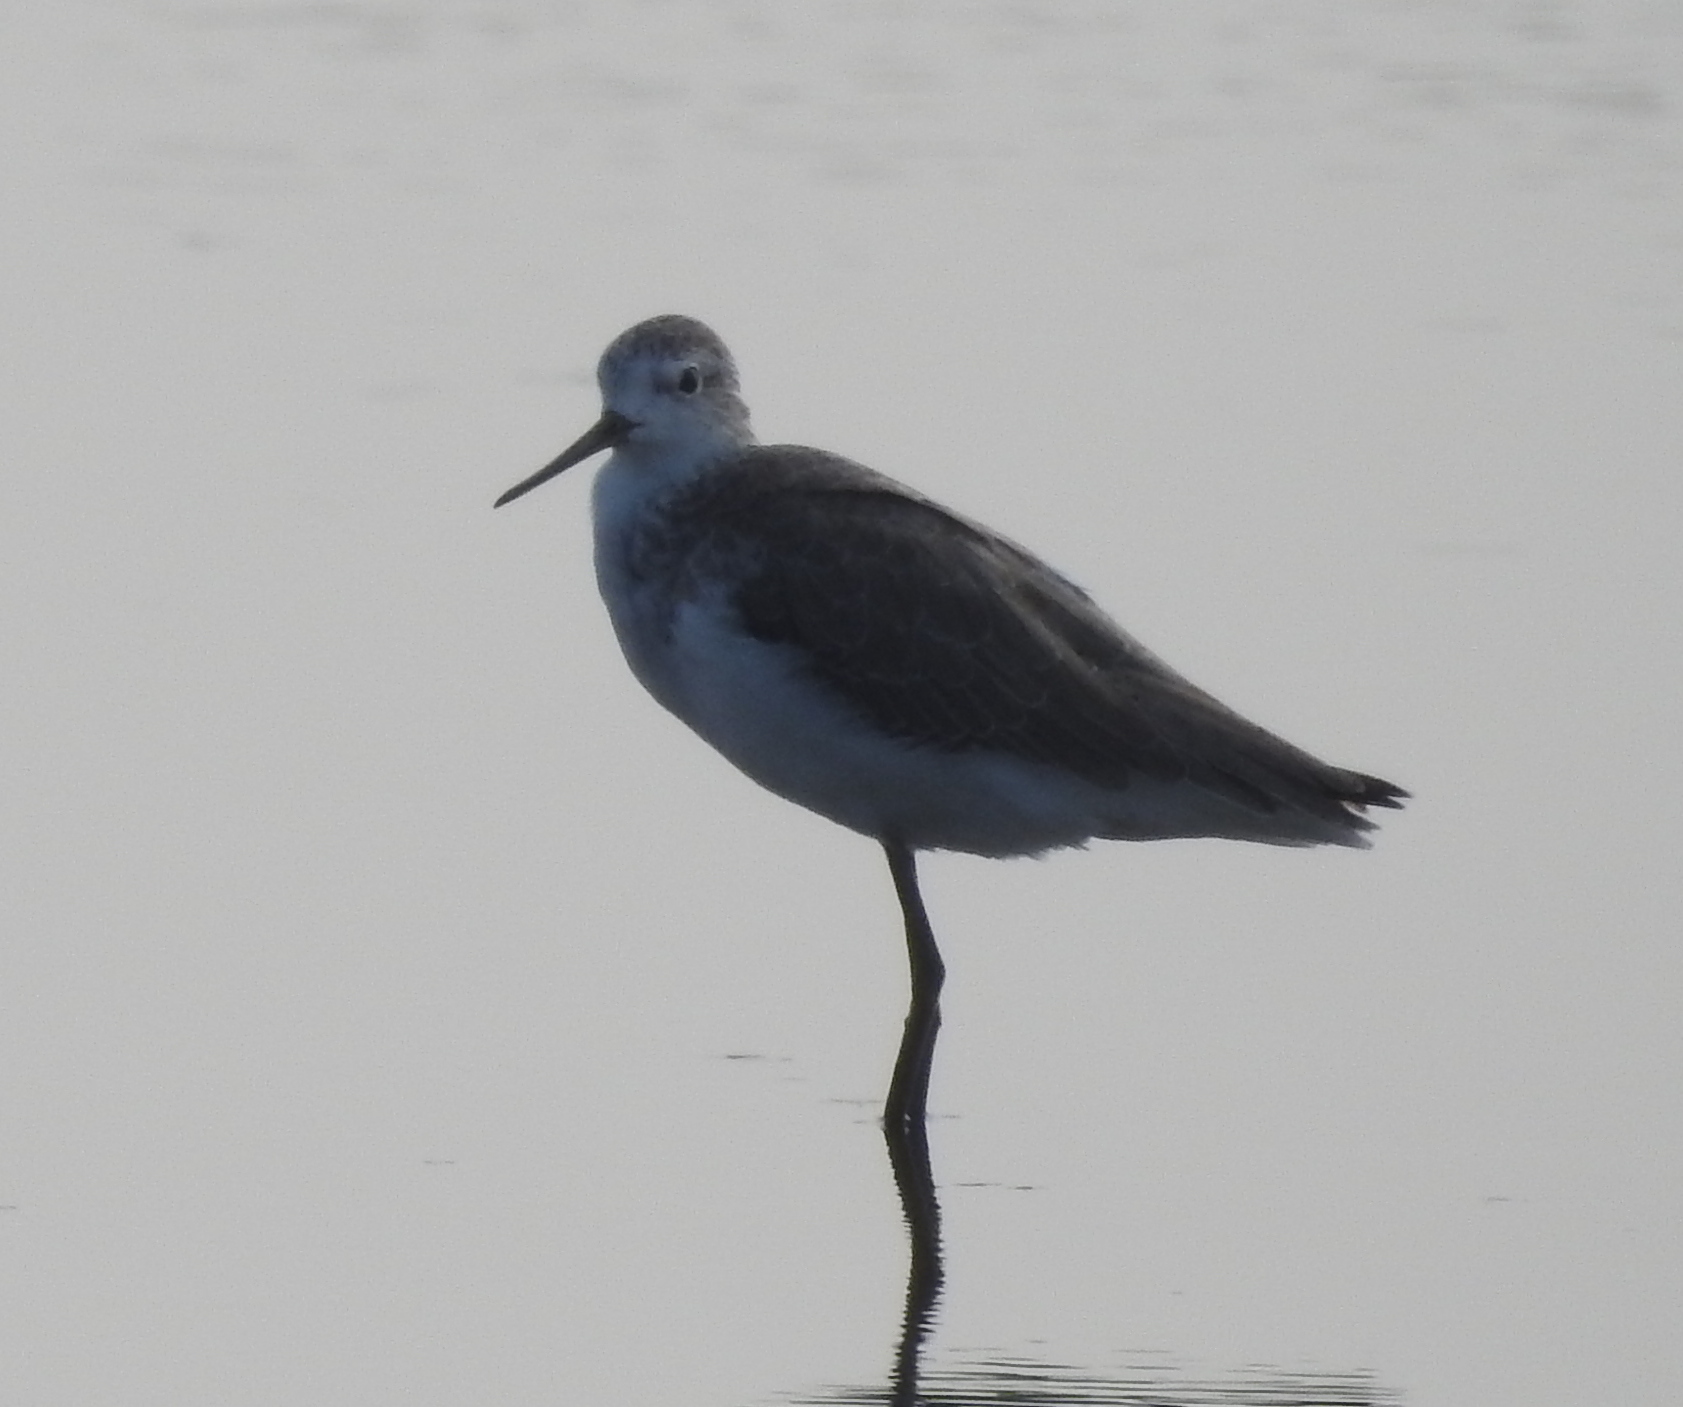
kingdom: Animalia
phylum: Chordata
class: Aves
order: Charadriiformes
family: Scolopacidae
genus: Tringa
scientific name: Tringa stagnatilis
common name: Marsh sandpiper
